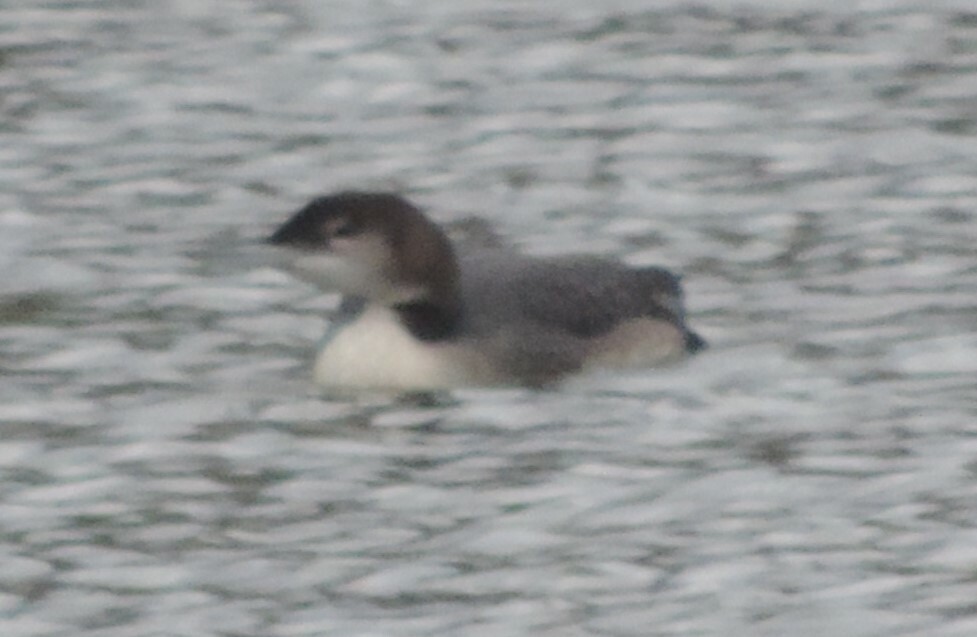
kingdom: Animalia
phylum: Chordata
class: Aves
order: Gaviiformes
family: Gaviidae
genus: Gavia
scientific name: Gavia immer
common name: Common loon
